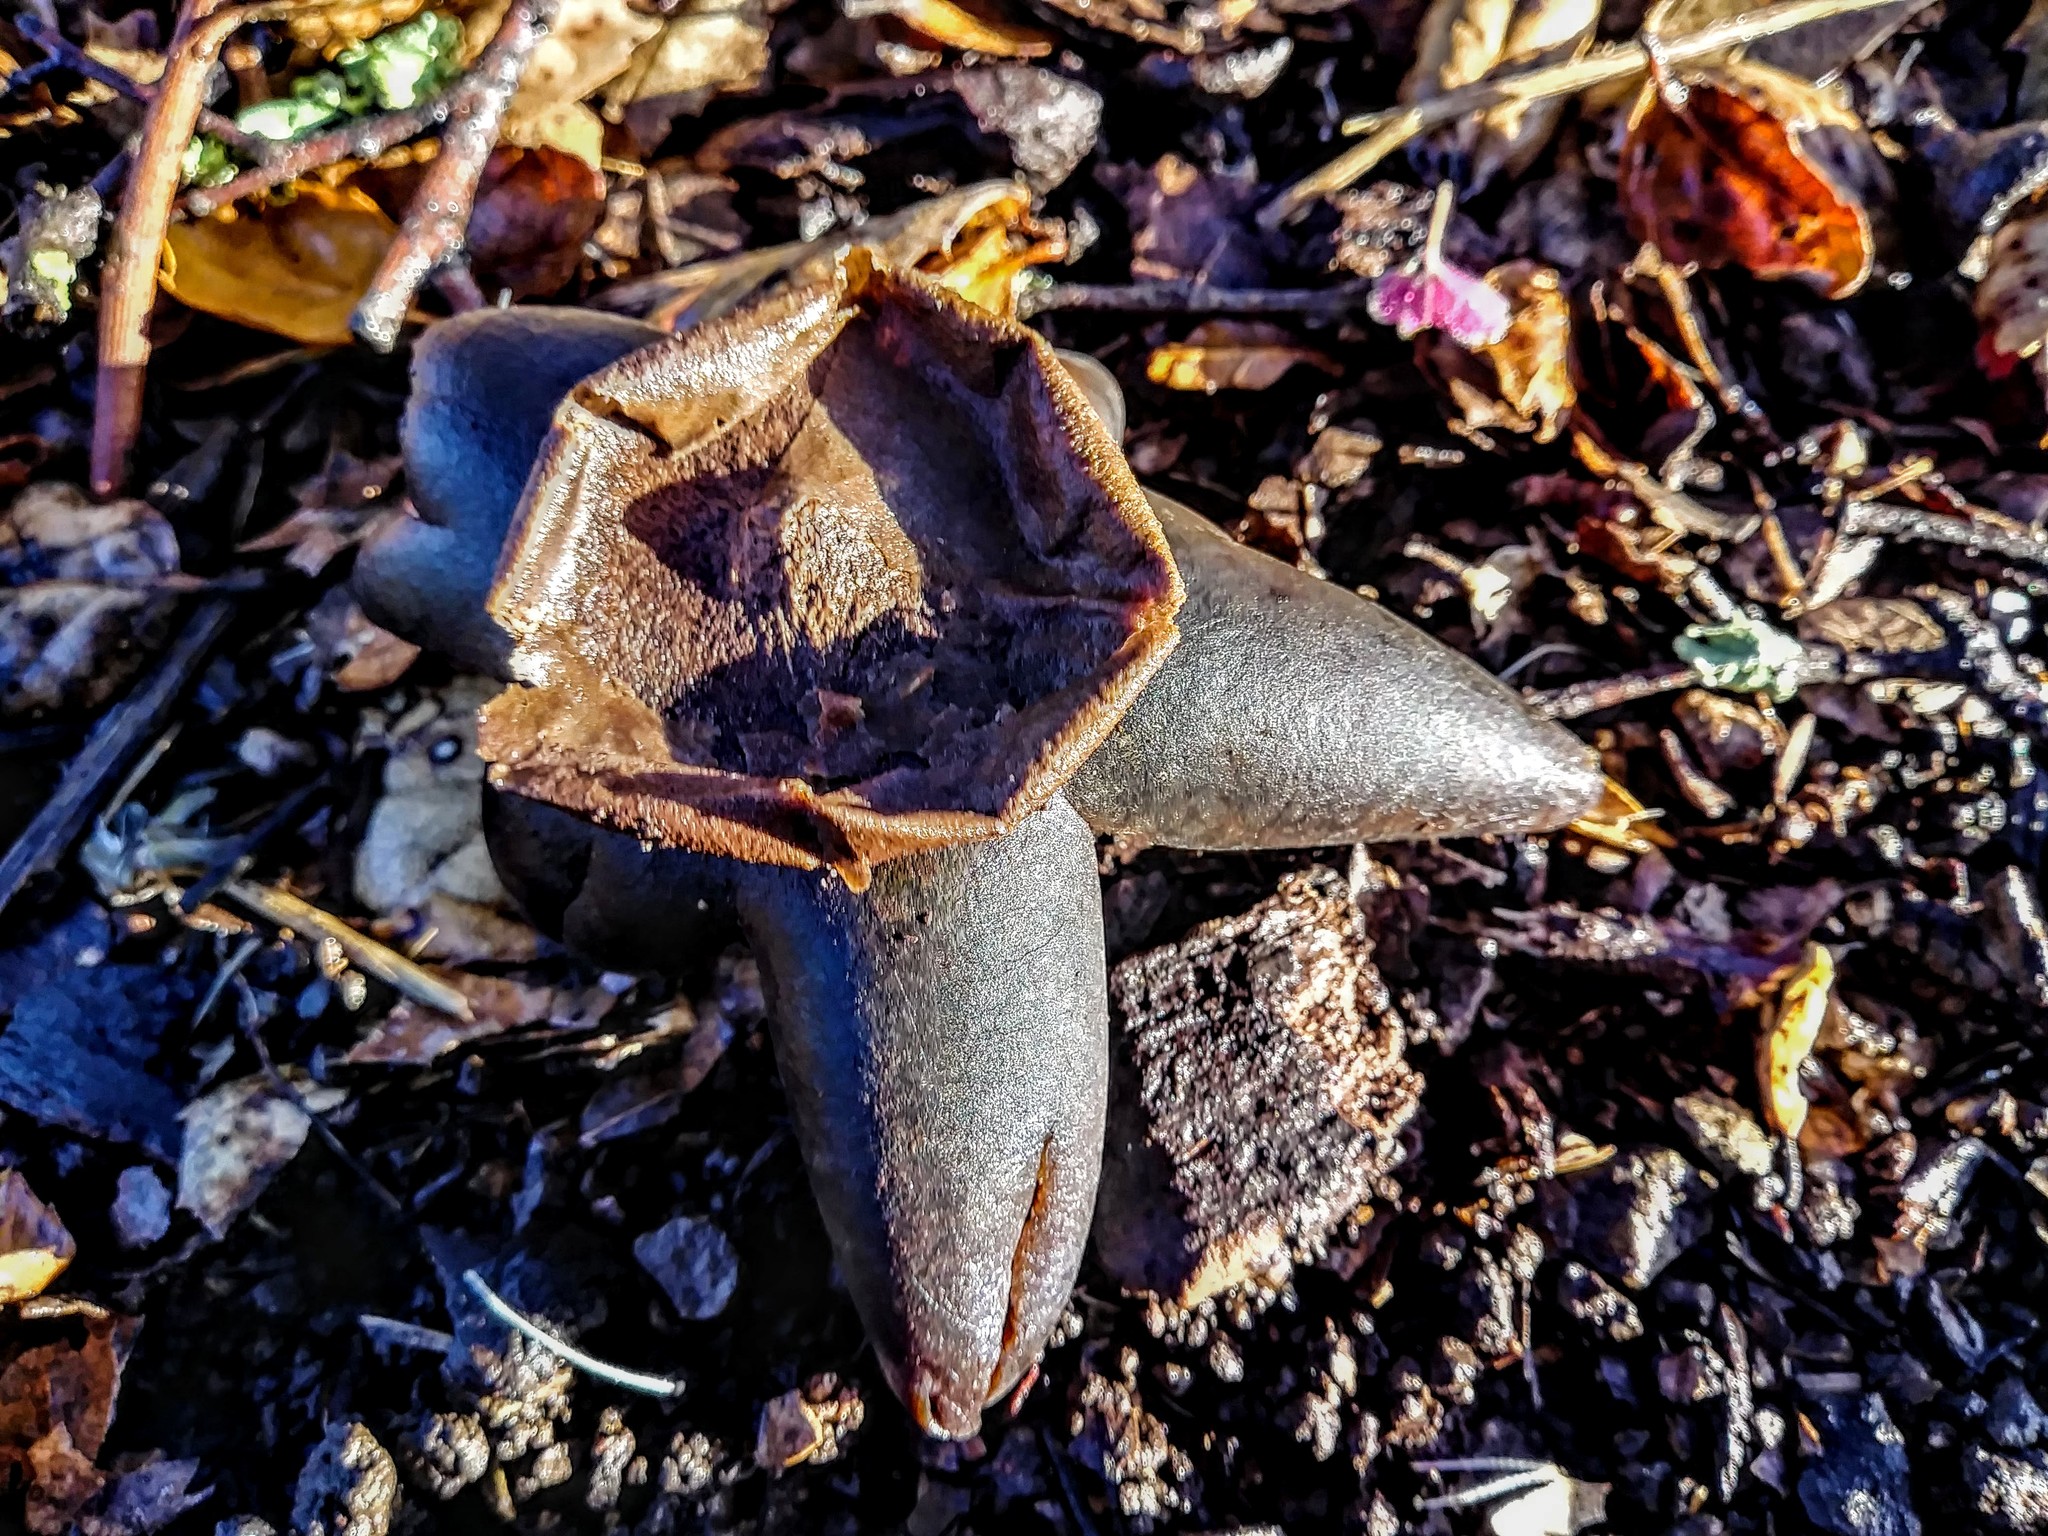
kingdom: Fungi
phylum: Basidiomycota
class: Agaricomycetes
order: Boletales
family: Diplocystidiaceae
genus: Astraeus
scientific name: Astraeus hygrometricus
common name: Barometer earthstar
